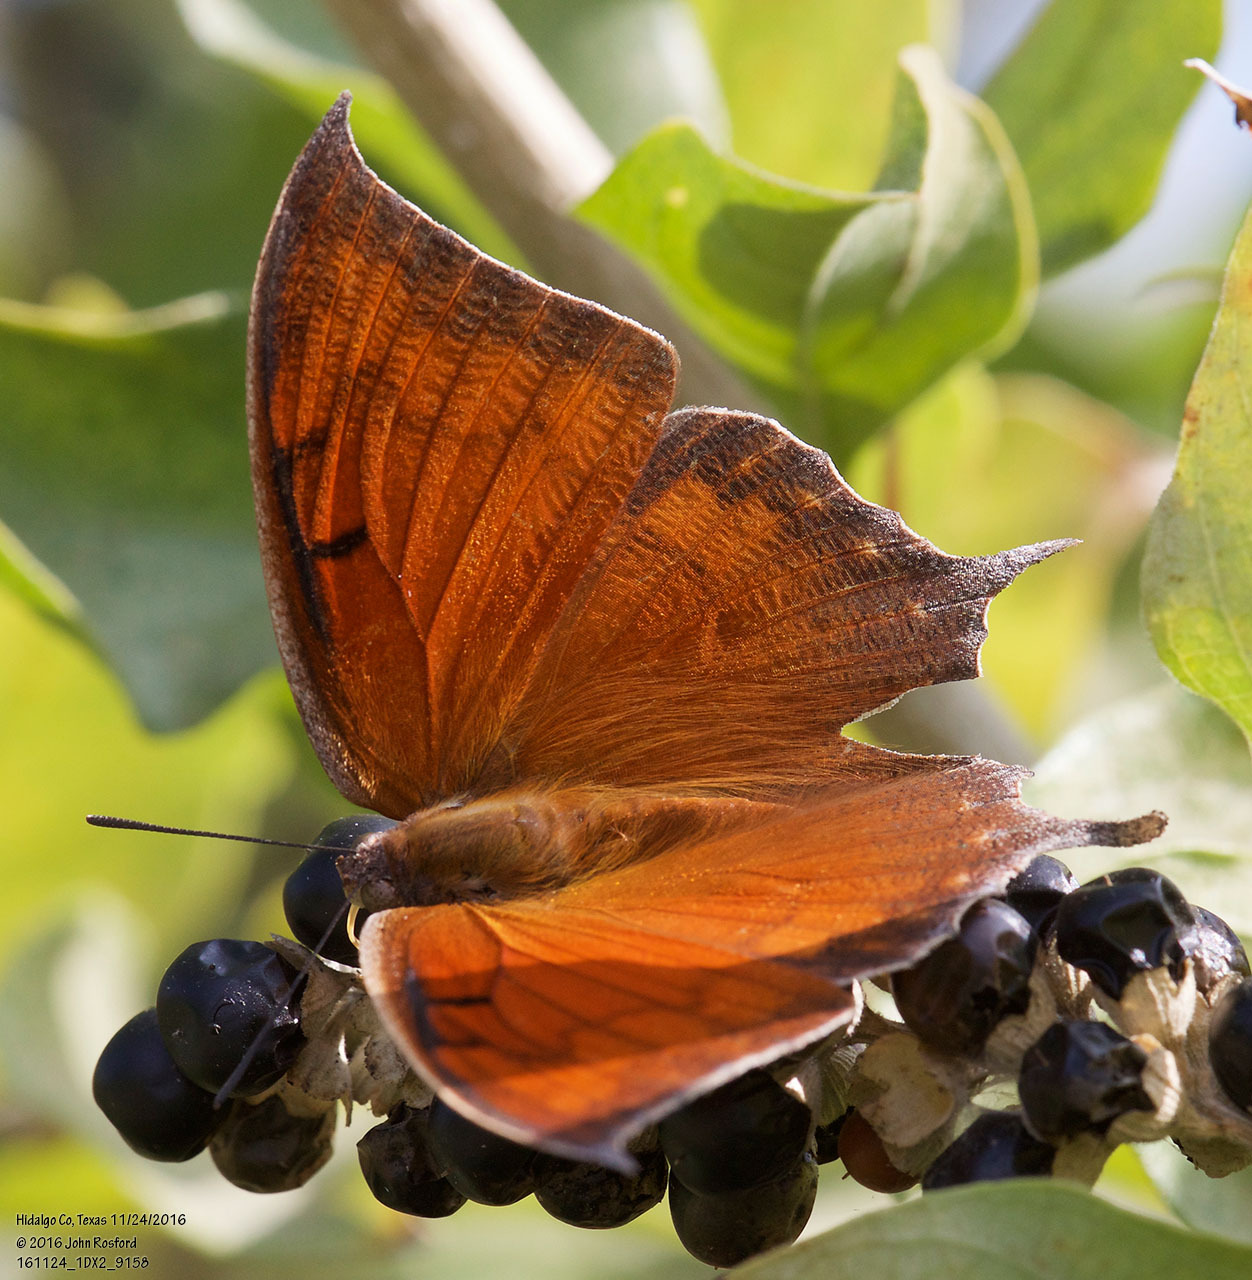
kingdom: Animalia
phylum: Arthropoda
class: Insecta
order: Lepidoptera
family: Nymphalidae
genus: Anaea
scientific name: Anaea aidea
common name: Tropical leafwing
